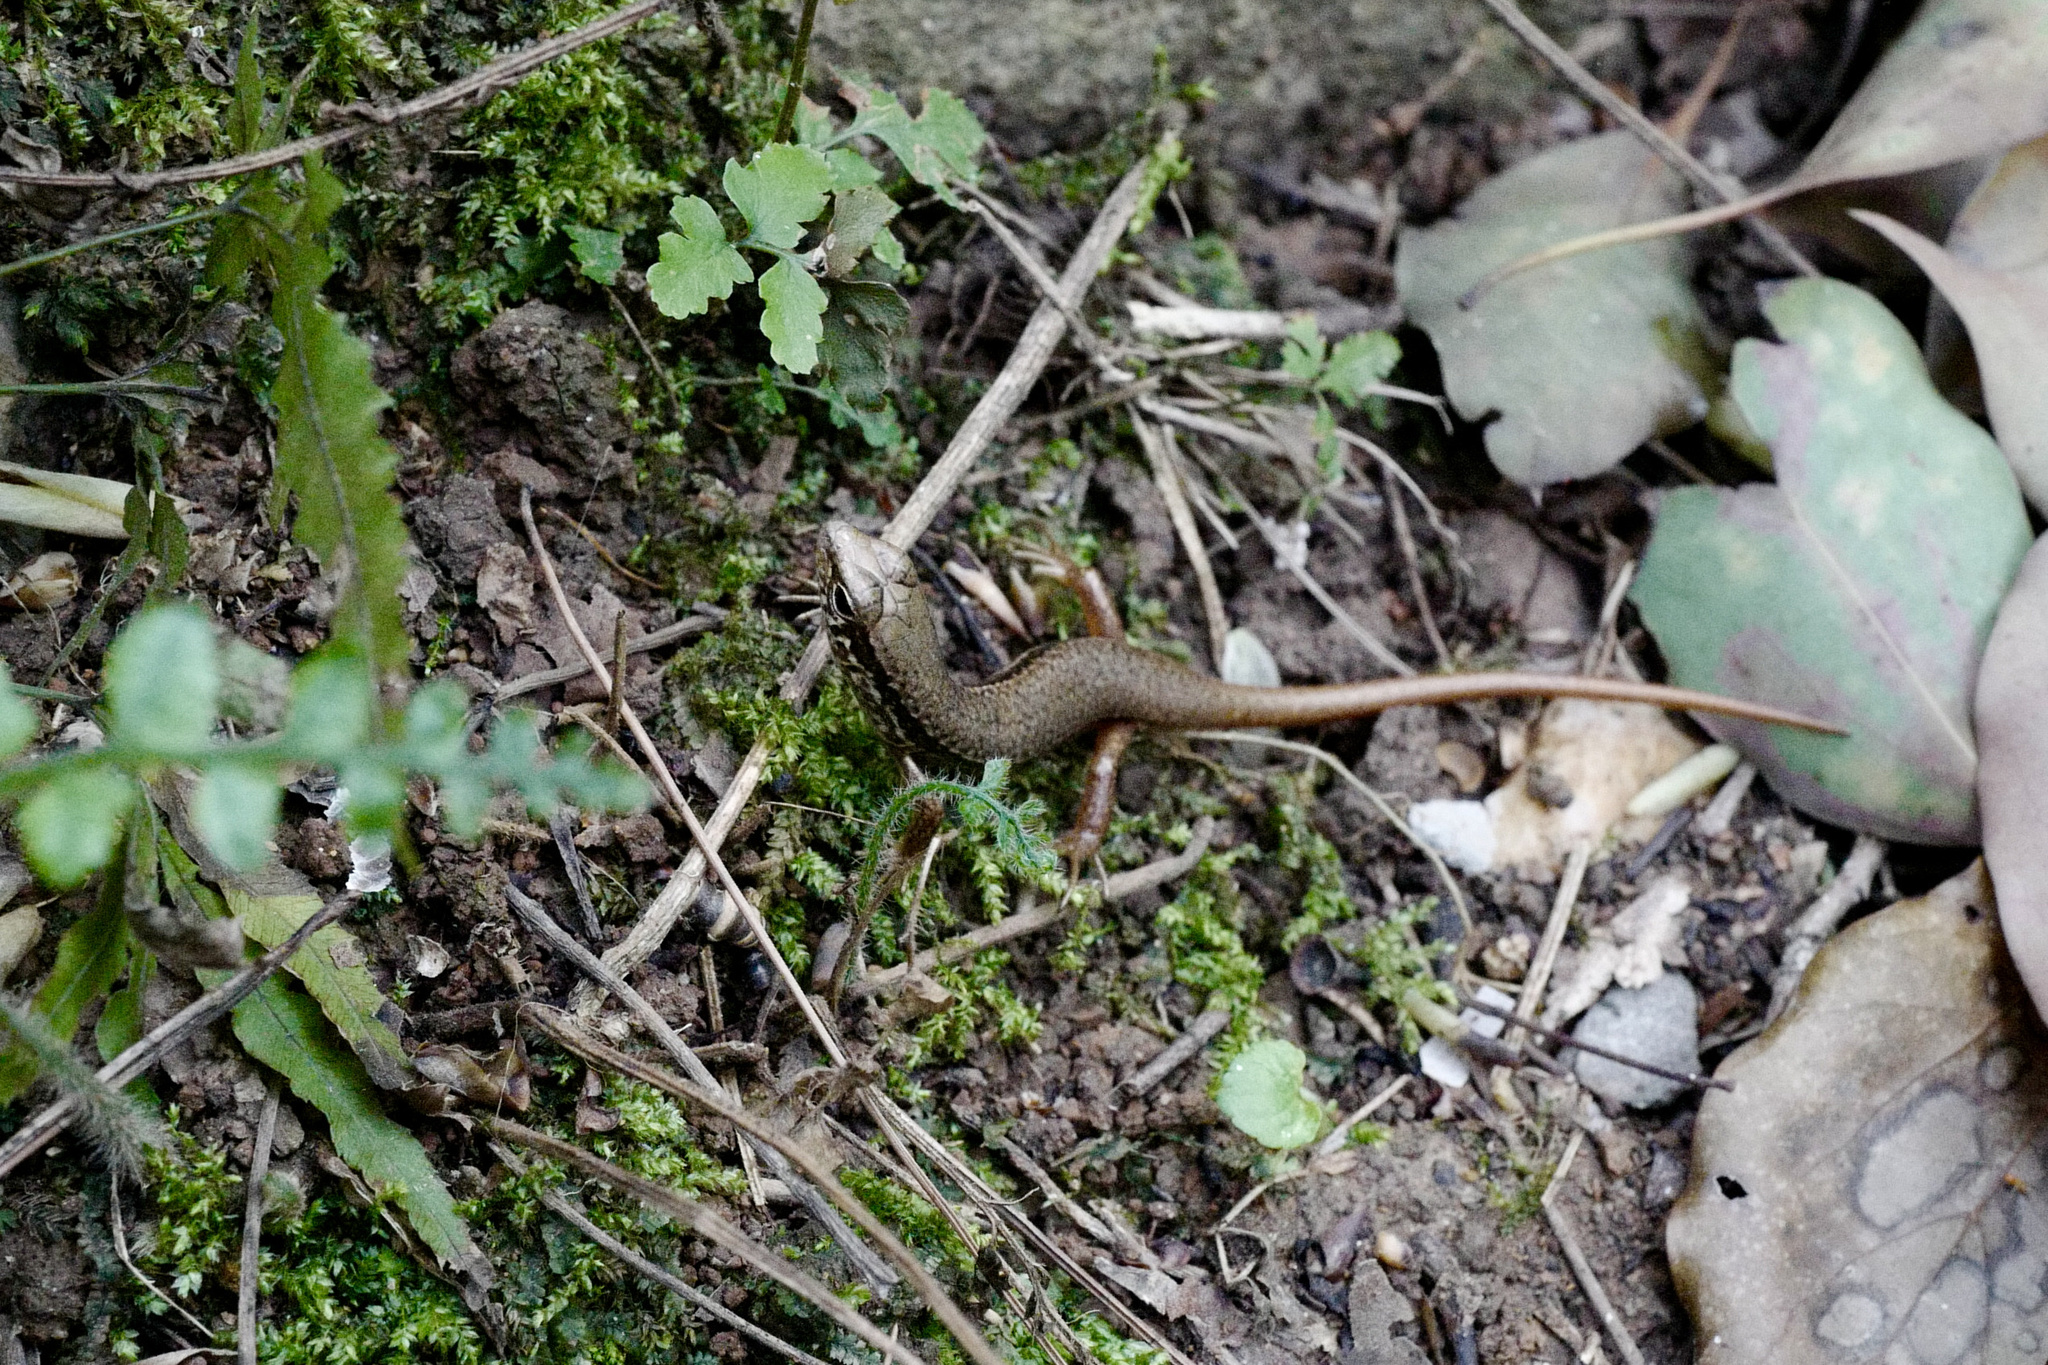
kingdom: Animalia
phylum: Chordata
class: Squamata
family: Scincidae
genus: Sphenomorphus
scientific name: Sphenomorphus indicus
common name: Himalayan forest skink
